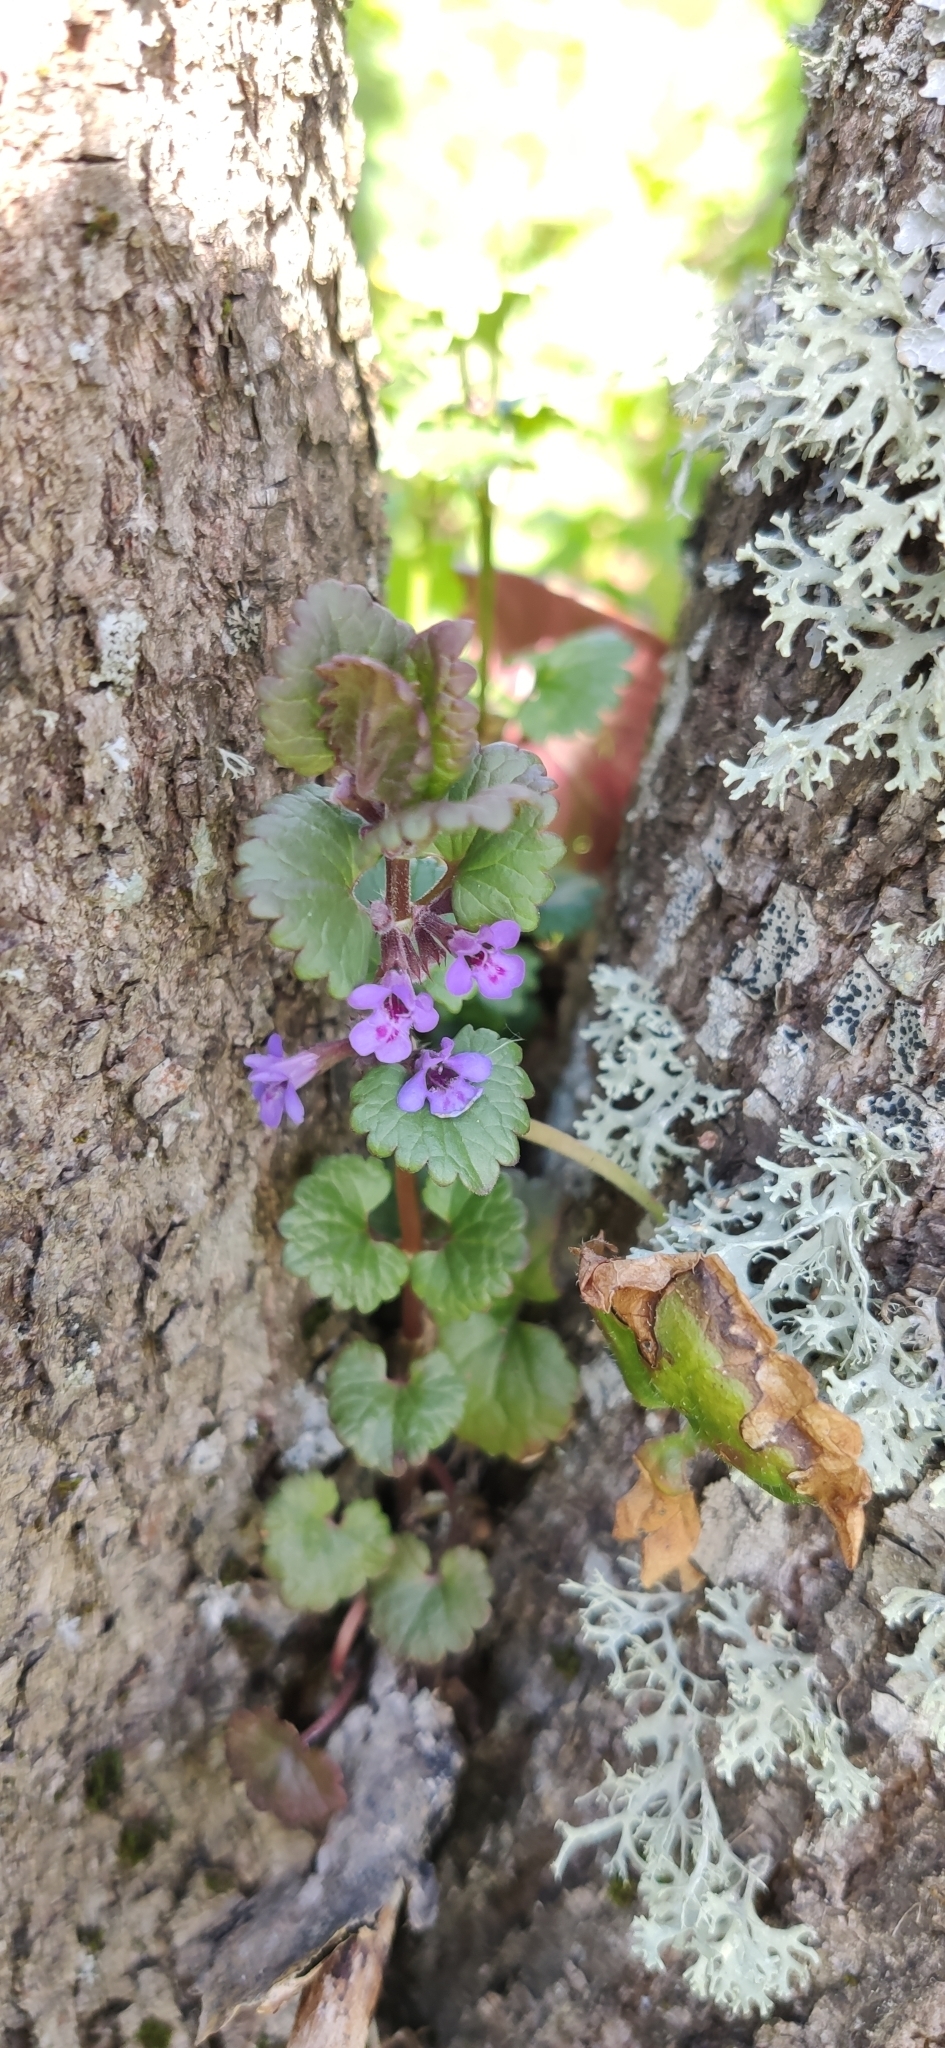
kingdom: Plantae
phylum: Tracheophyta
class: Magnoliopsida
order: Lamiales
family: Lamiaceae
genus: Glechoma
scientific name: Glechoma hederacea
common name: Ground ivy
